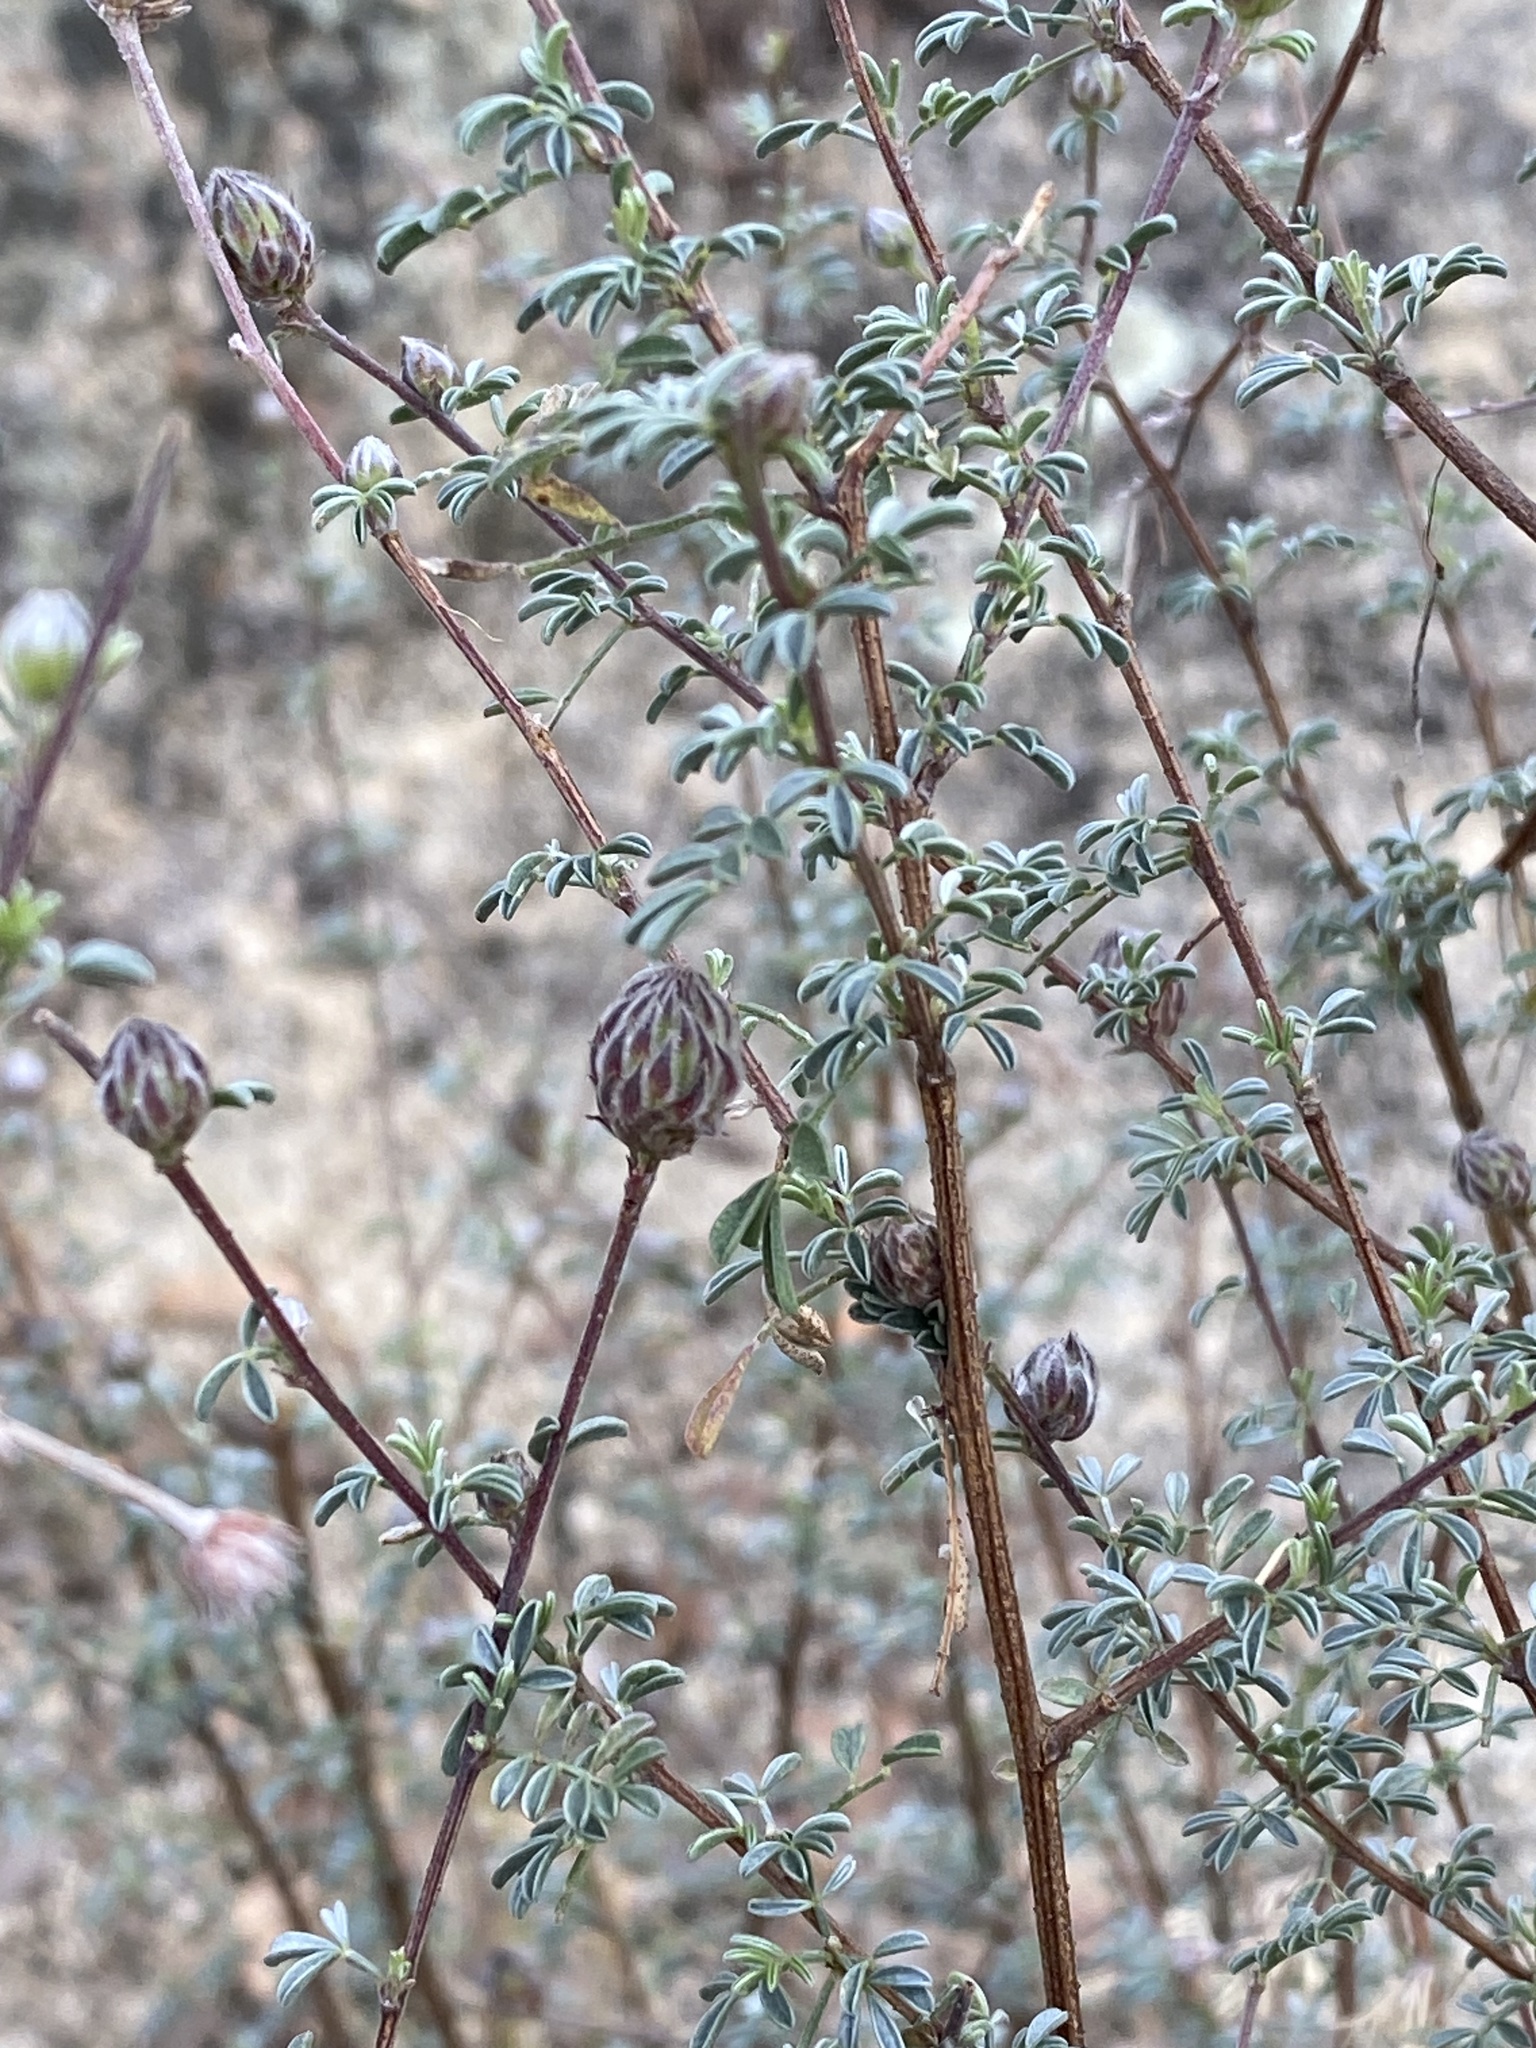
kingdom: Plantae
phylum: Tracheophyta
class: Magnoliopsida
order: Fabales
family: Fabaceae
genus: Dalea
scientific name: Dalea pulchra
